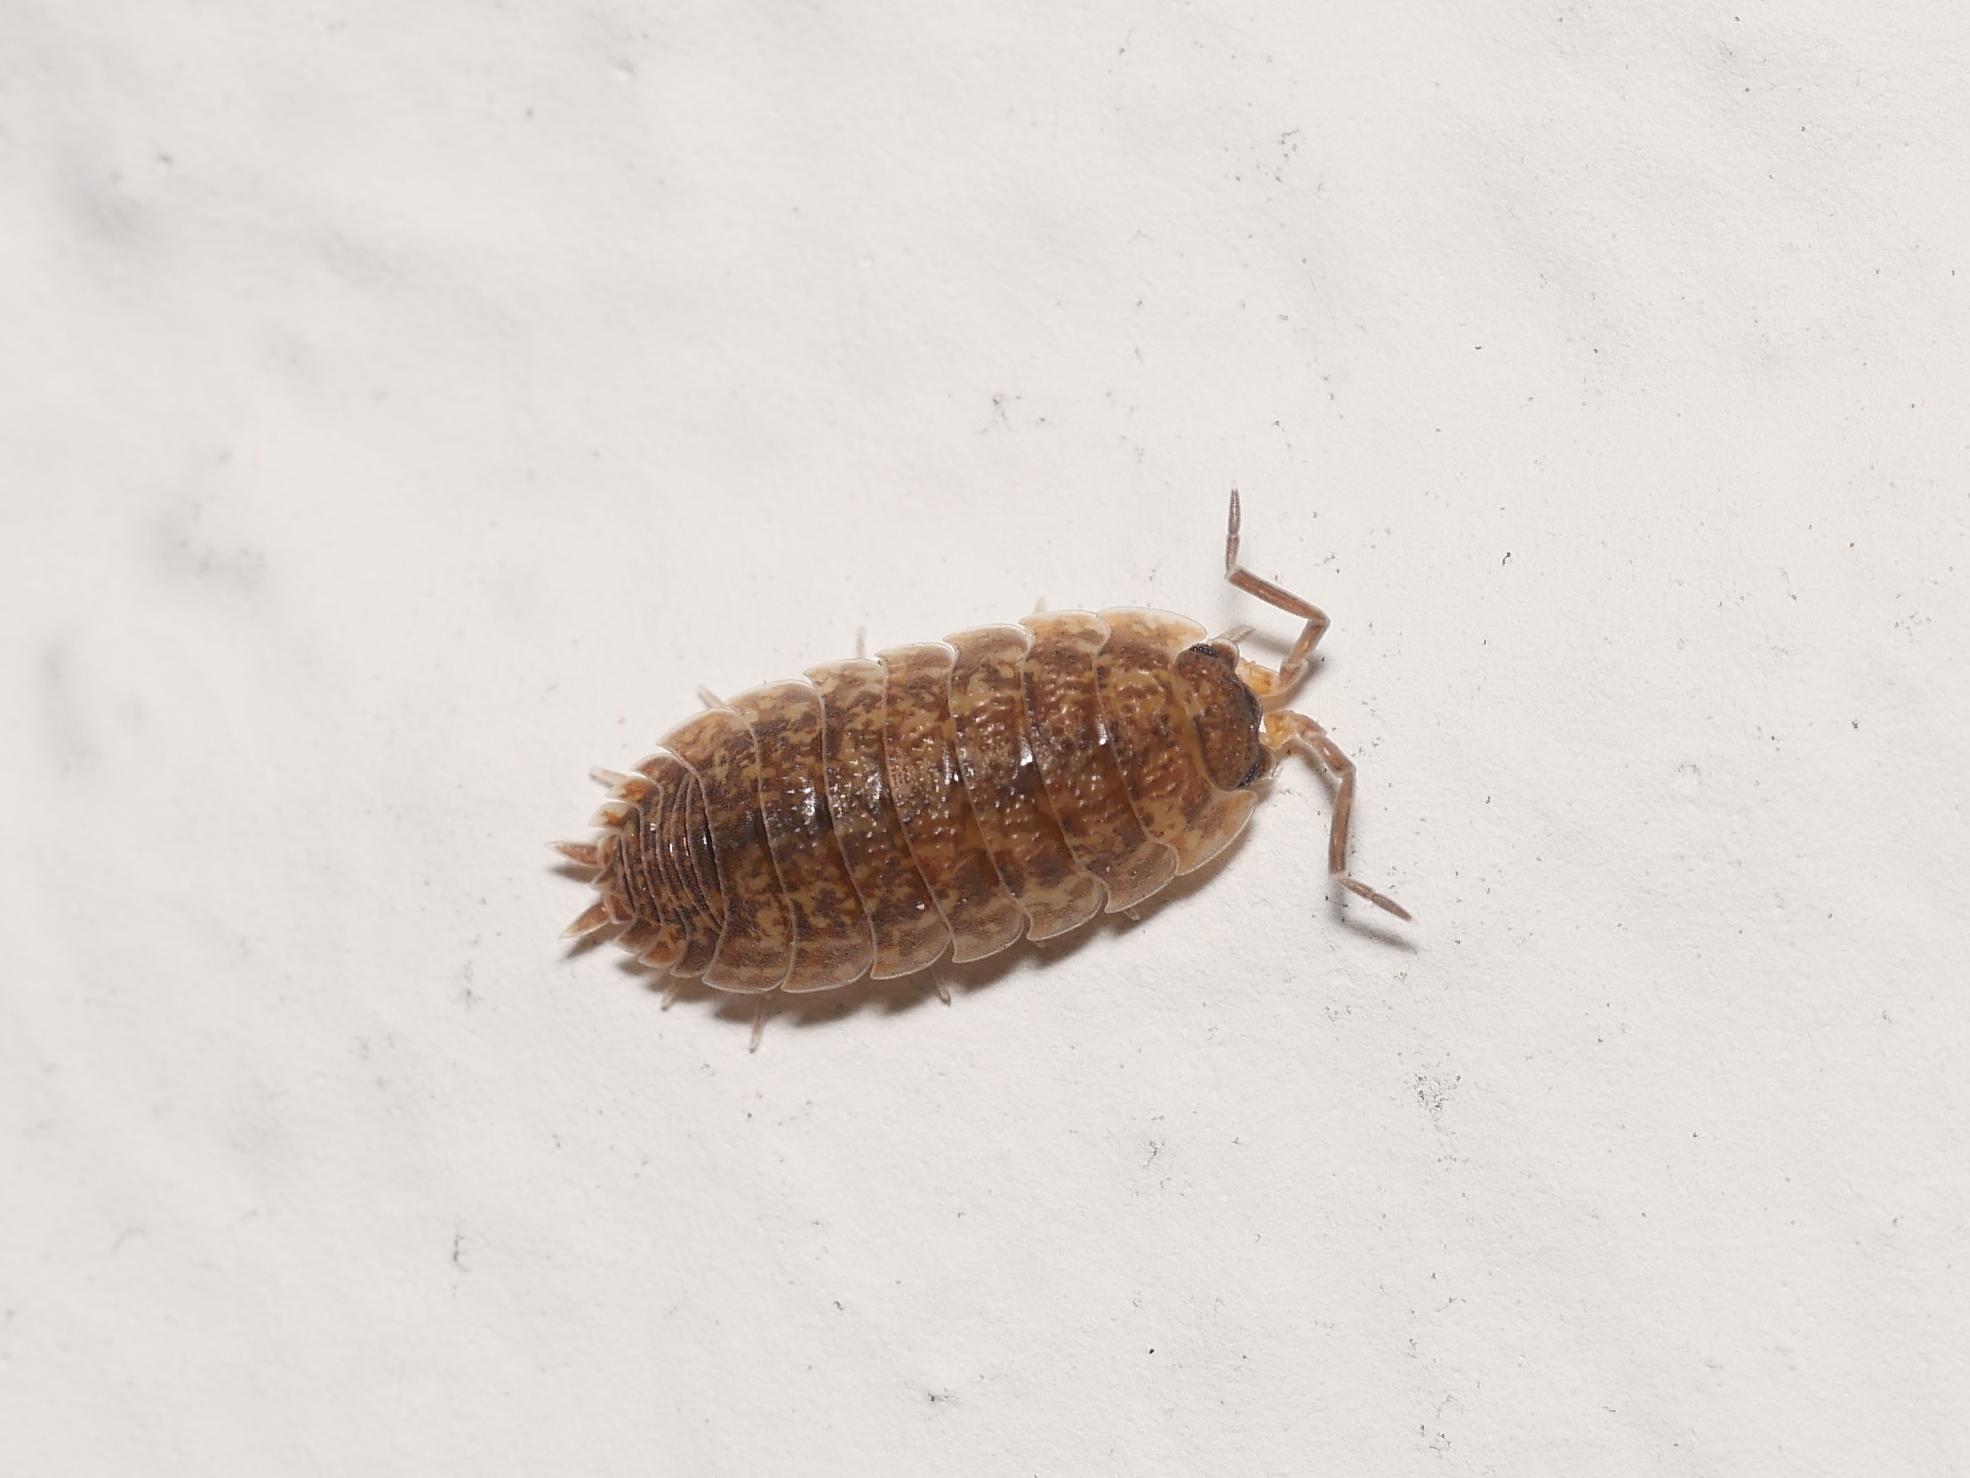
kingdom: Animalia
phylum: Arthropoda
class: Malacostraca
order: Isopoda
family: Porcellionidae
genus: Porcellio
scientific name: Porcellio scaber
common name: Common rough woodlouse
